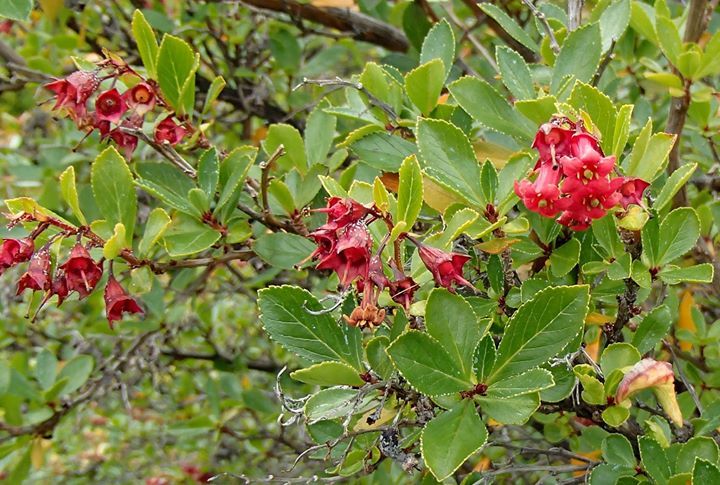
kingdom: Plantae
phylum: Tracheophyta
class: Magnoliopsida
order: Escalloniales
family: Escalloniaceae
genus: Escallonia
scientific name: Escallonia rubra
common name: Redclaws
